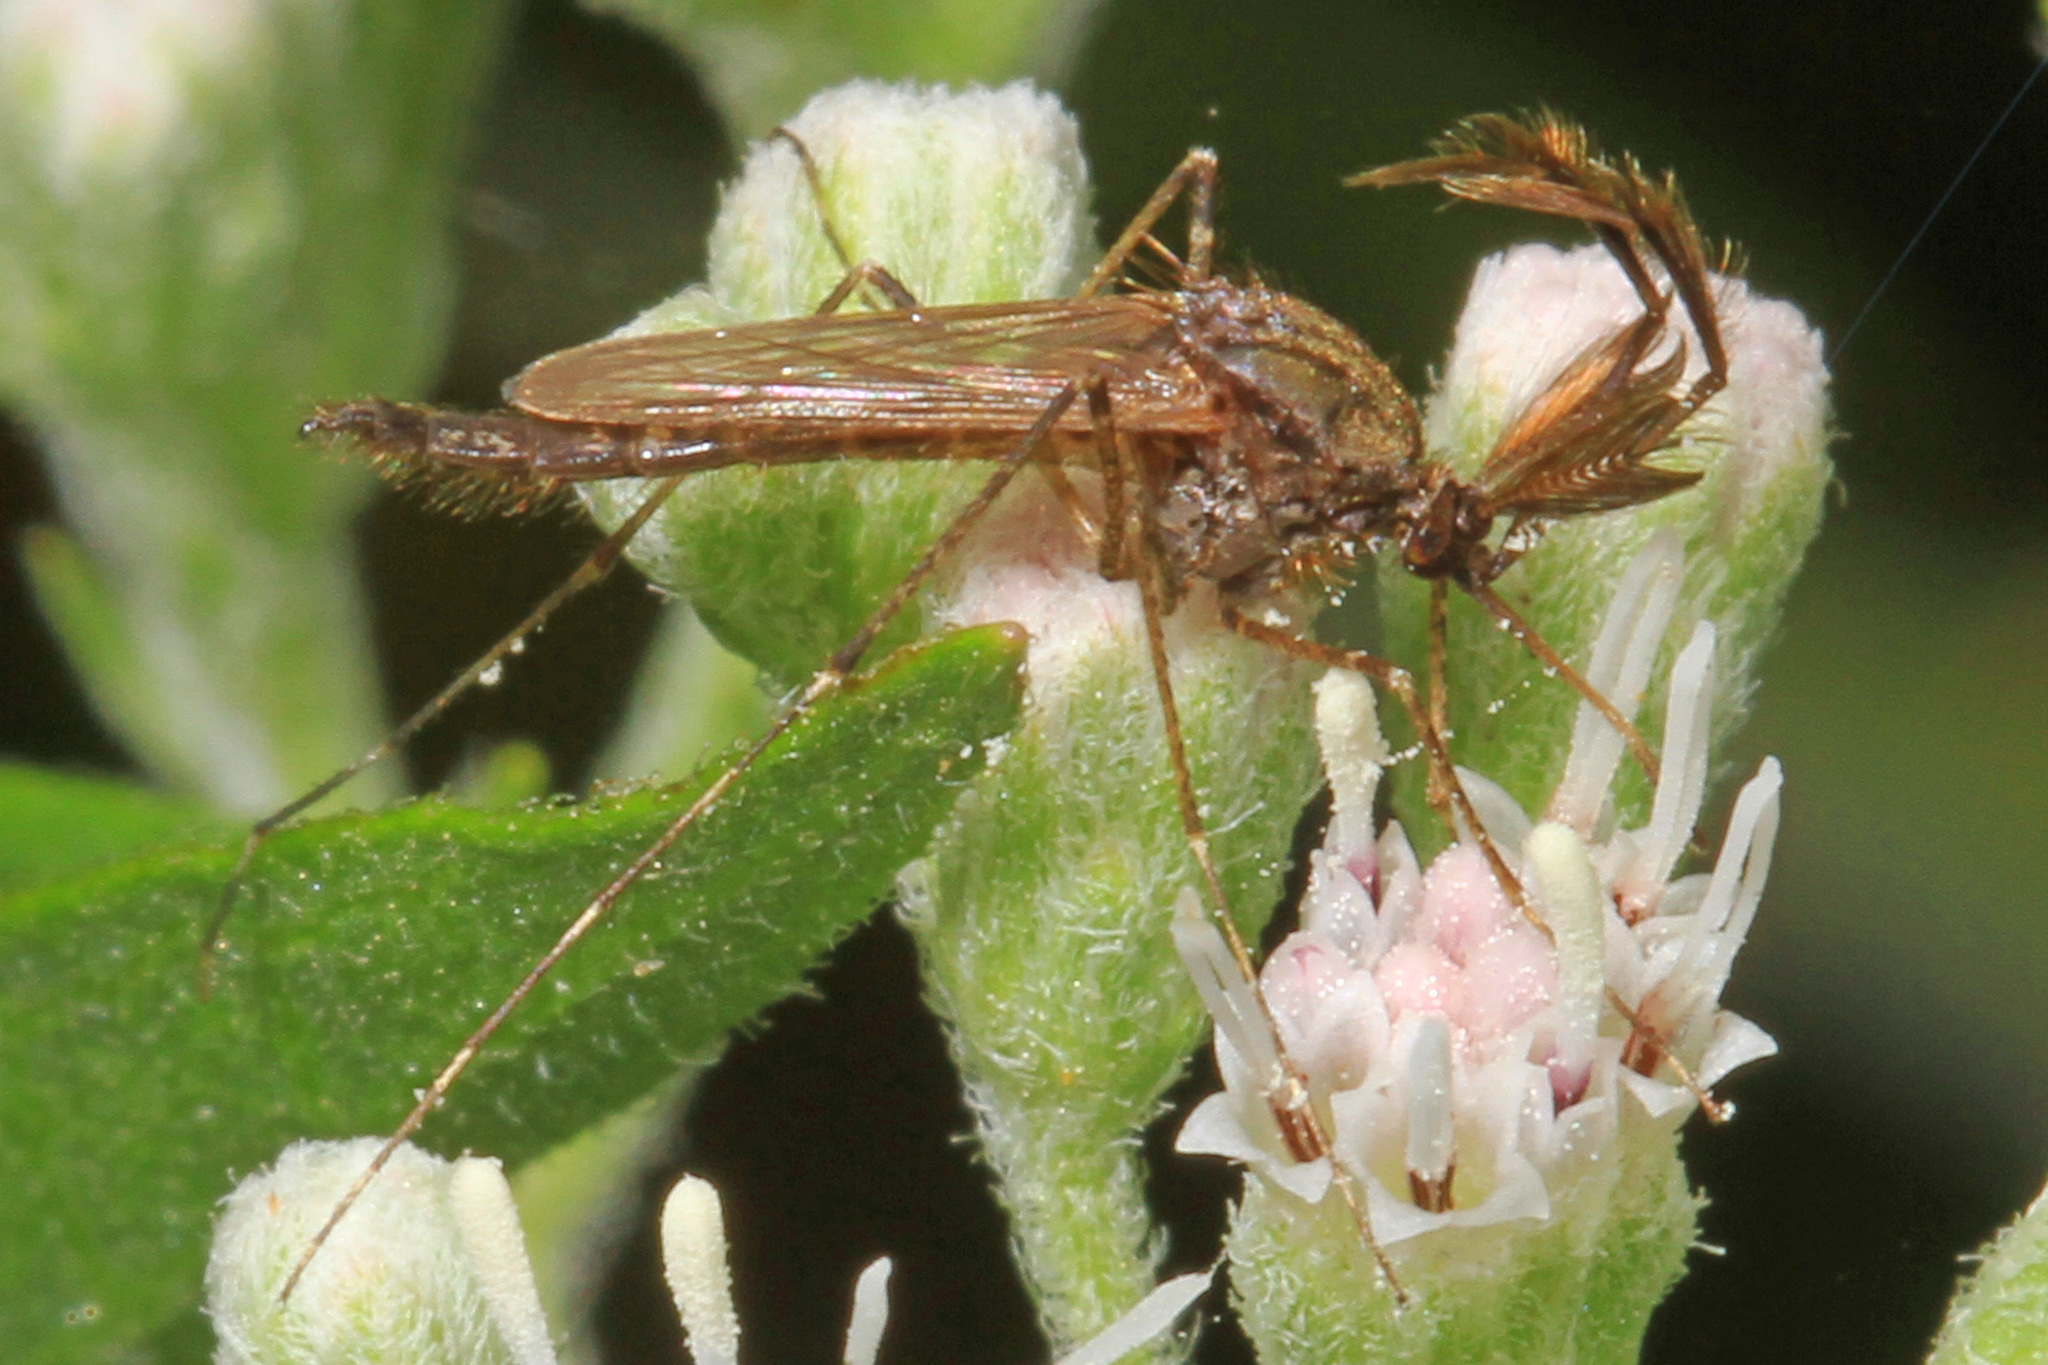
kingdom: Animalia
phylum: Arthropoda
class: Insecta
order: Diptera
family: Culicidae
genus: Psorophora
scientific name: Psorophora columbiae
